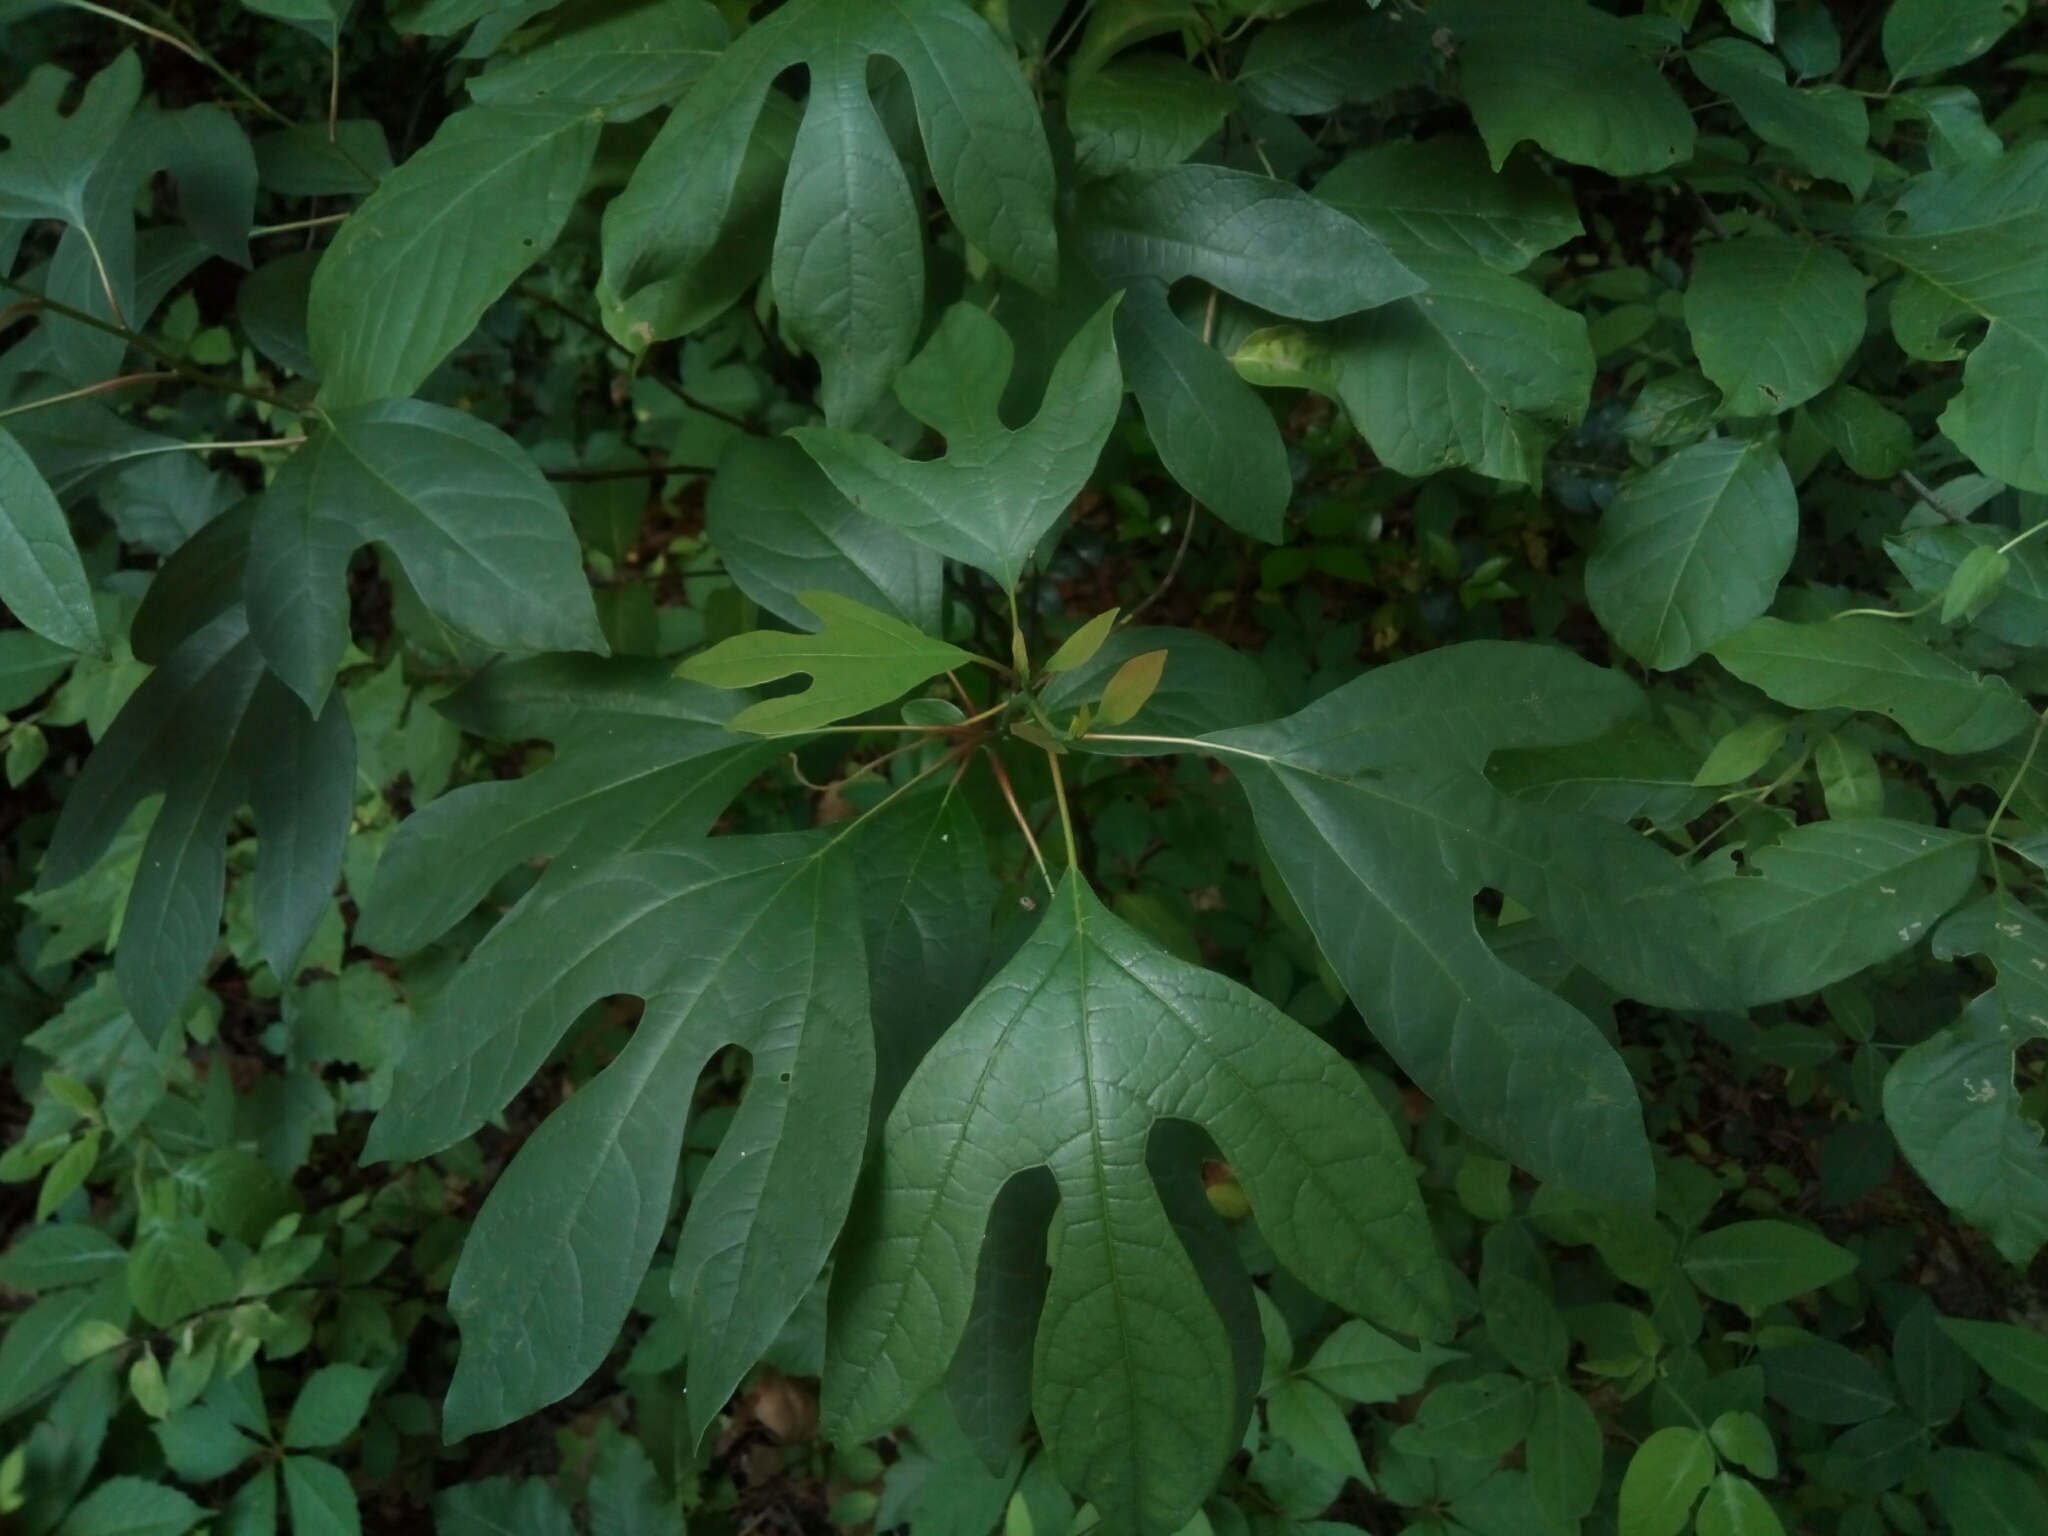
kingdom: Plantae
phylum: Tracheophyta
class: Magnoliopsida
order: Laurales
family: Lauraceae
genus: Sassafras
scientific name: Sassafras albidum
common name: Sassafras
